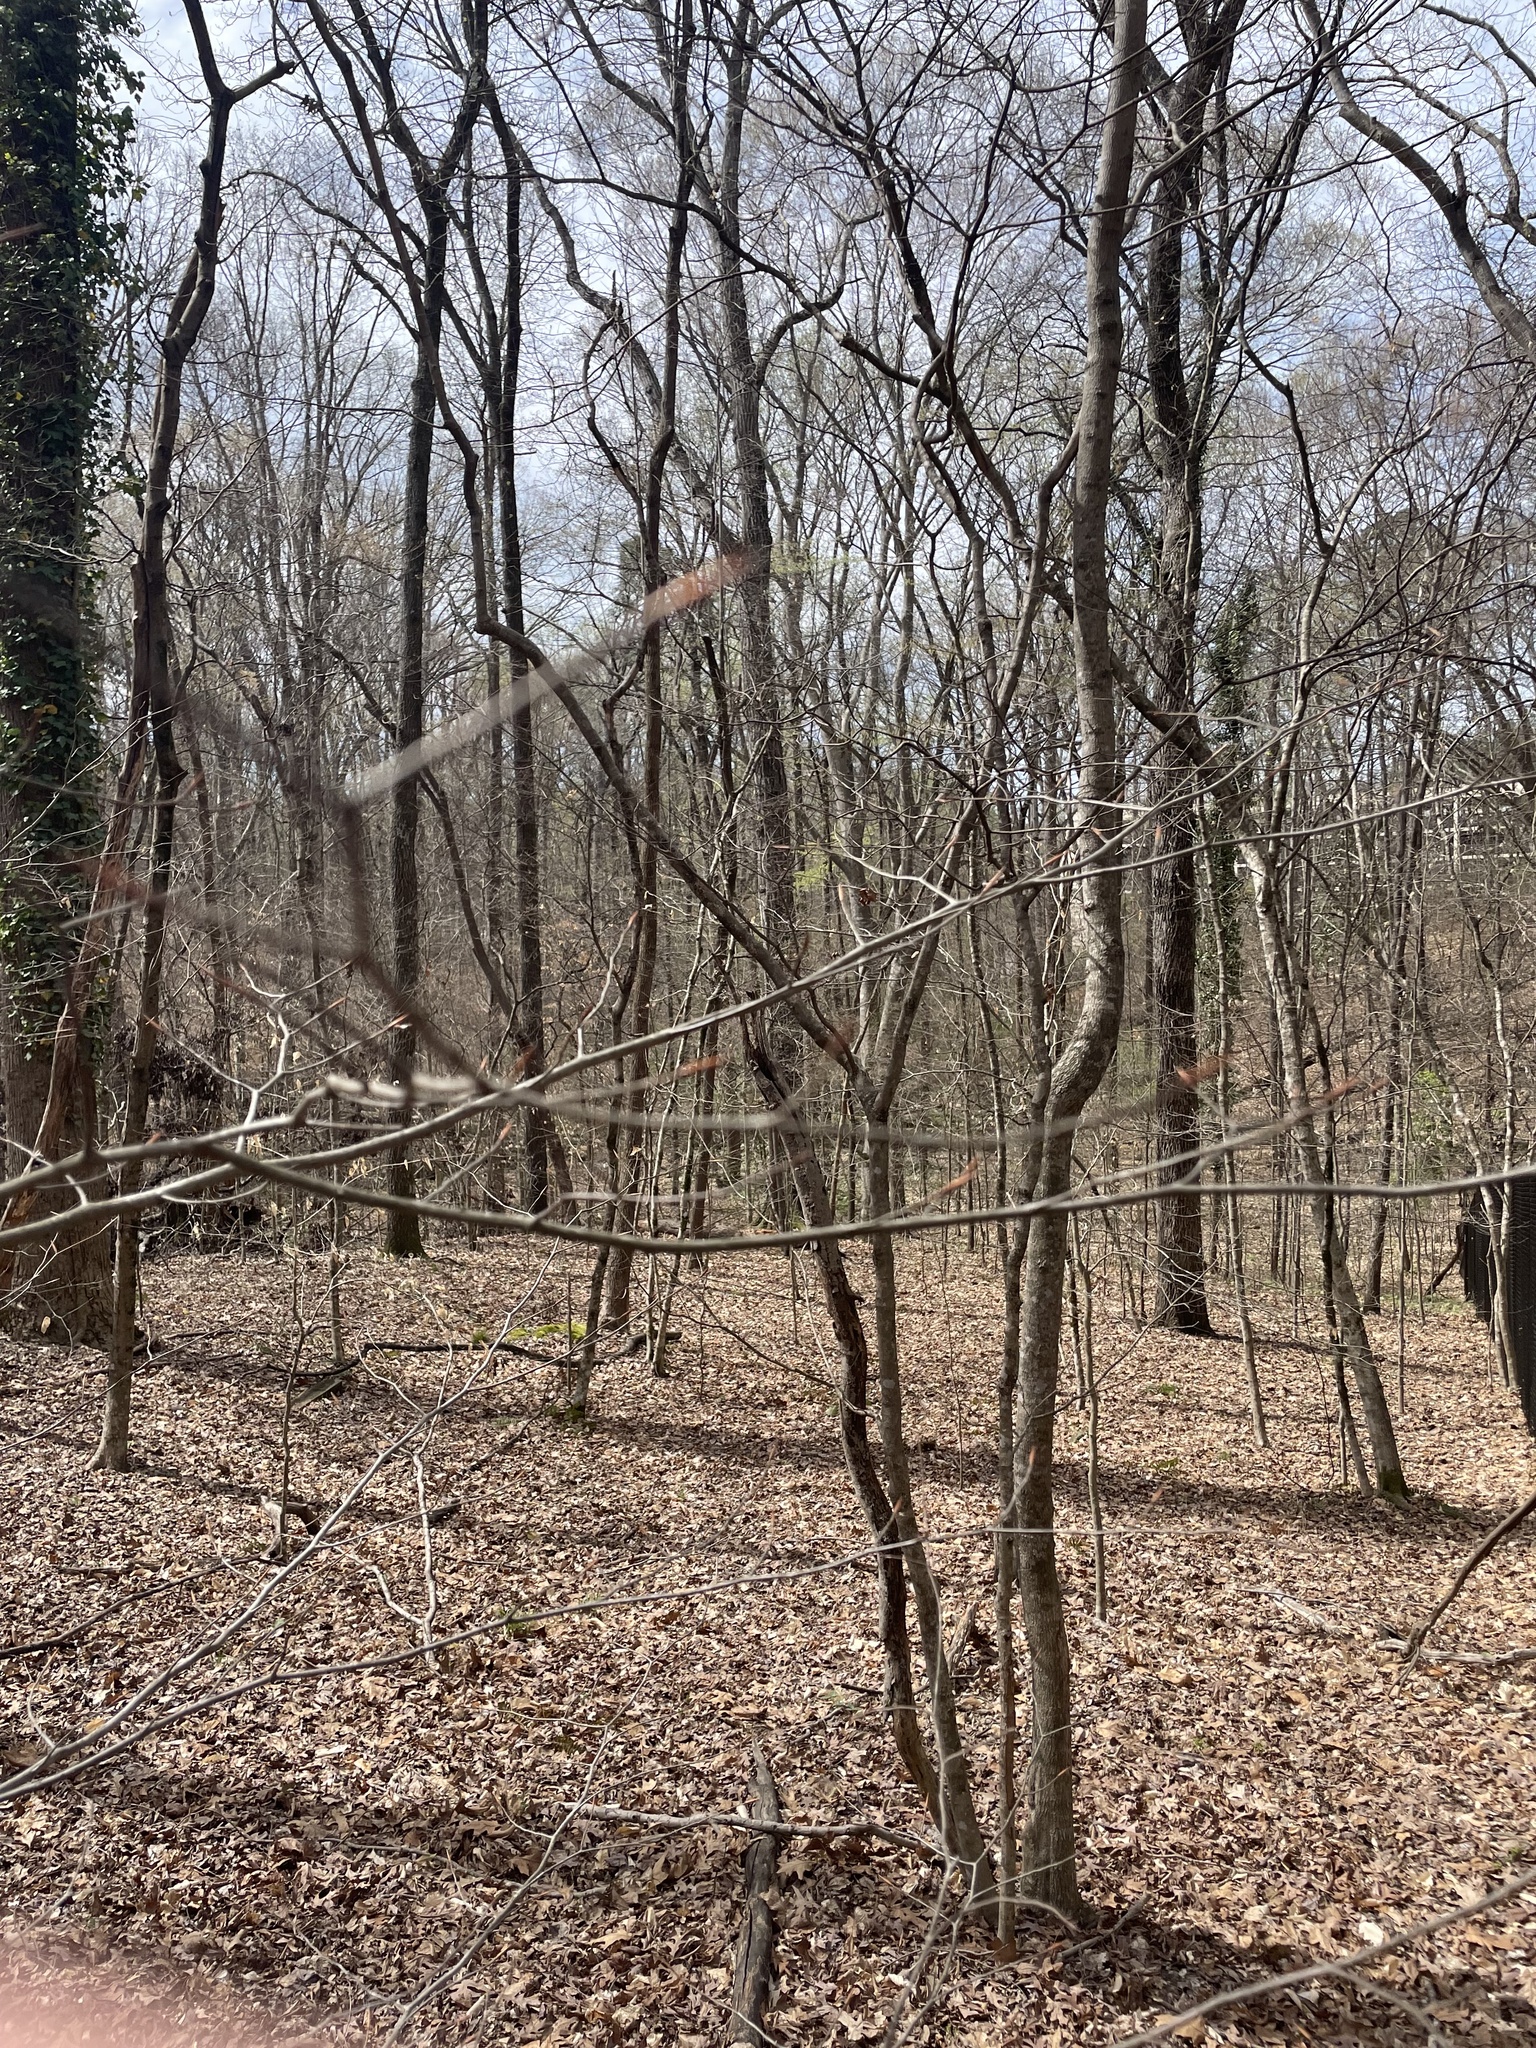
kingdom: Plantae
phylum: Tracheophyta
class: Magnoliopsida
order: Fagales
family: Fagaceae
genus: Fagus
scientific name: Fagus grandifolia
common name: American beech
